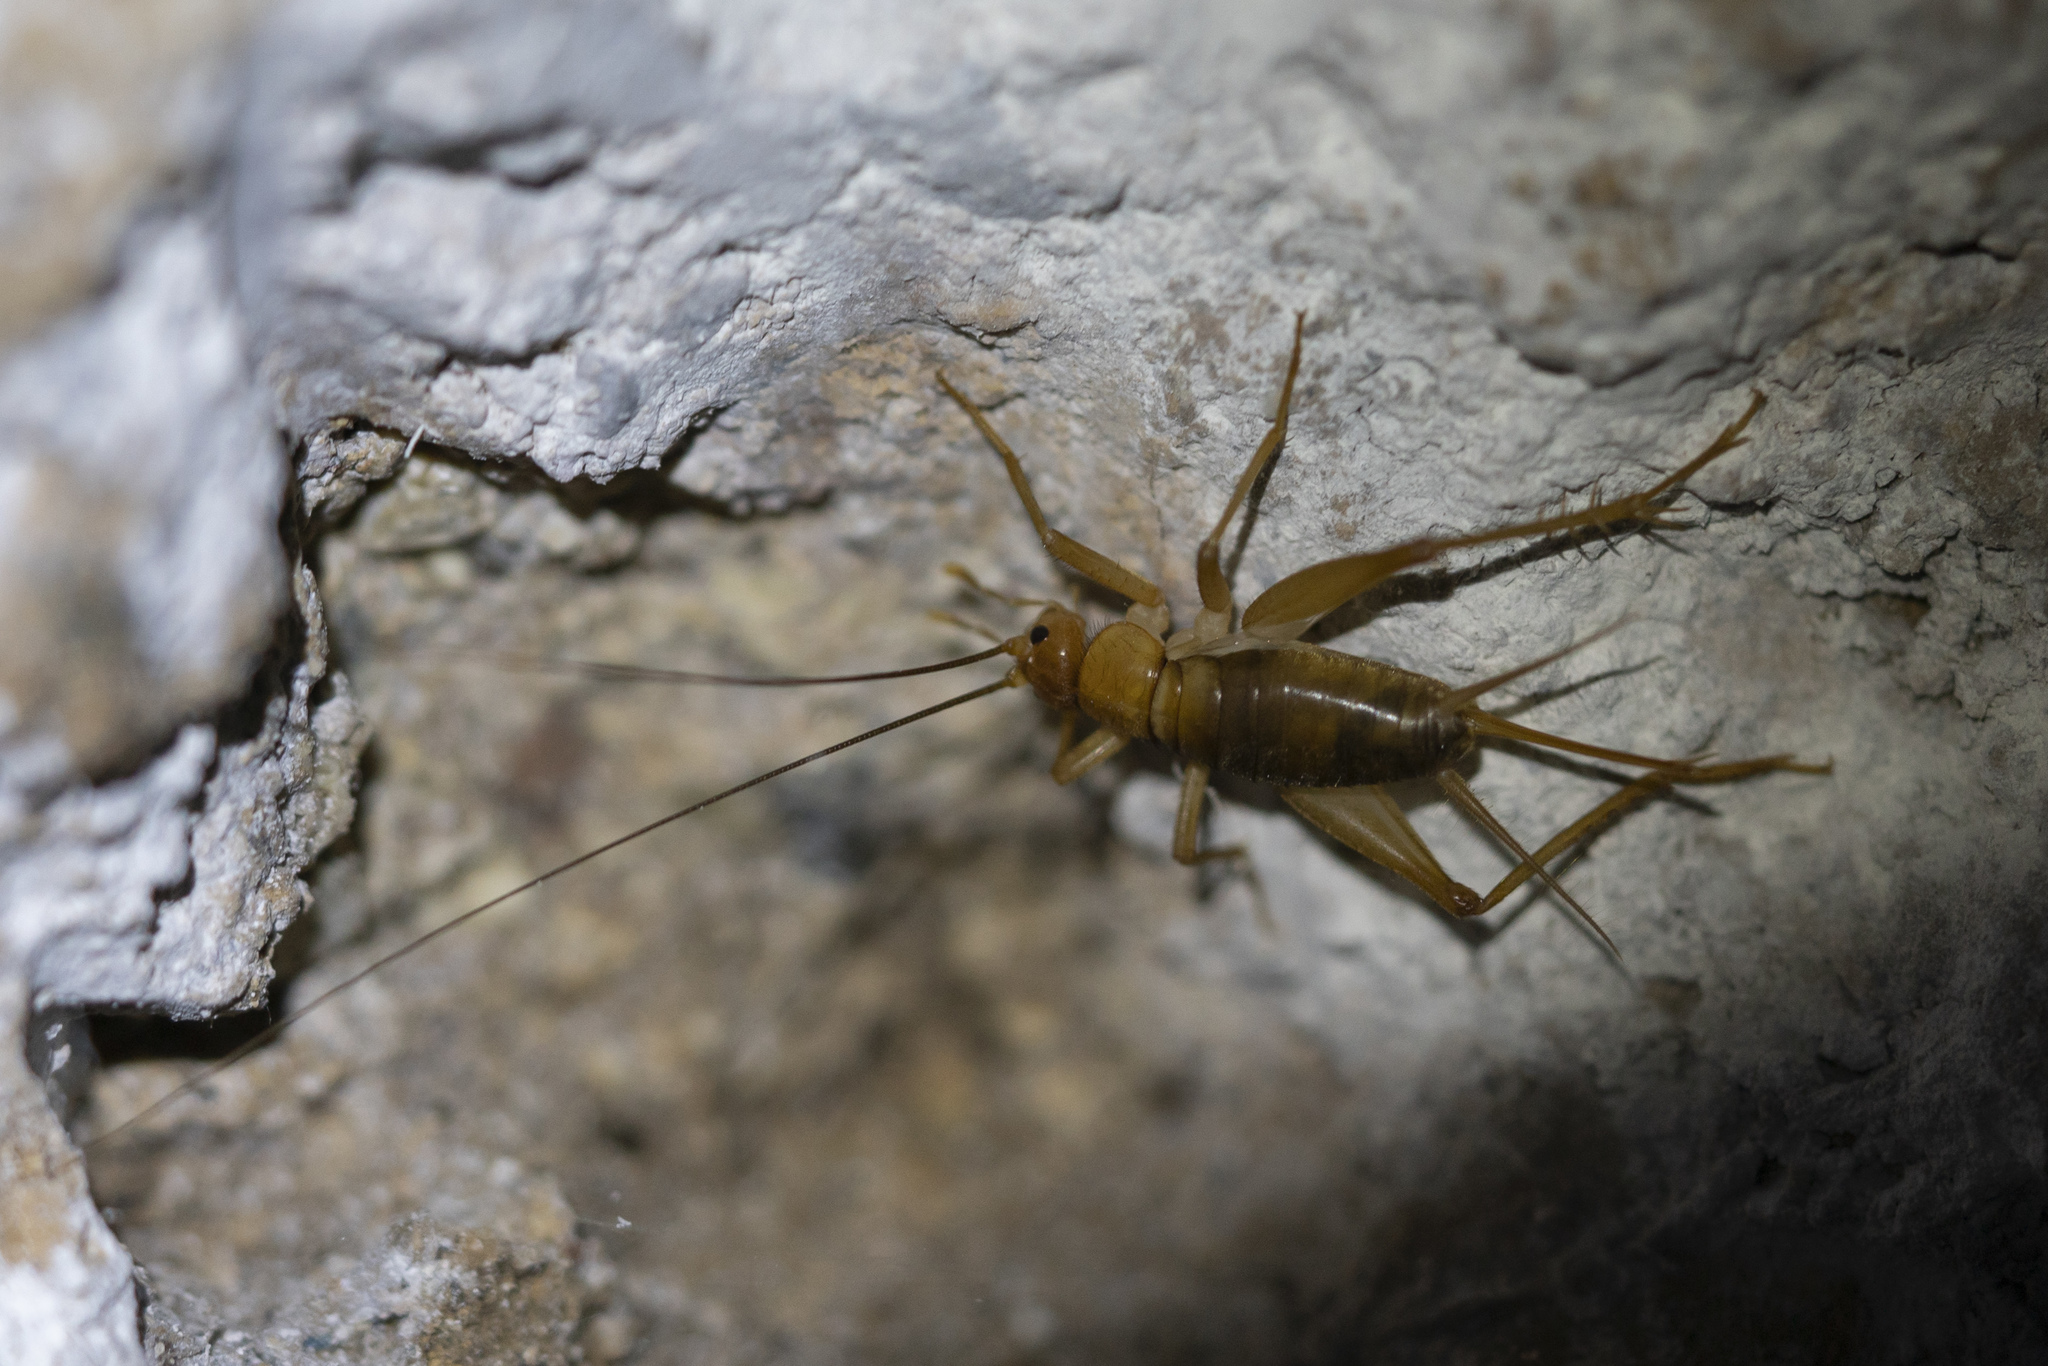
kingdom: Animalia
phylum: Arthropoda
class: Insecta
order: Orthoptera
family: Gryllidae
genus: Ovaliptila
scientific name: Ovaliptila rhodos
